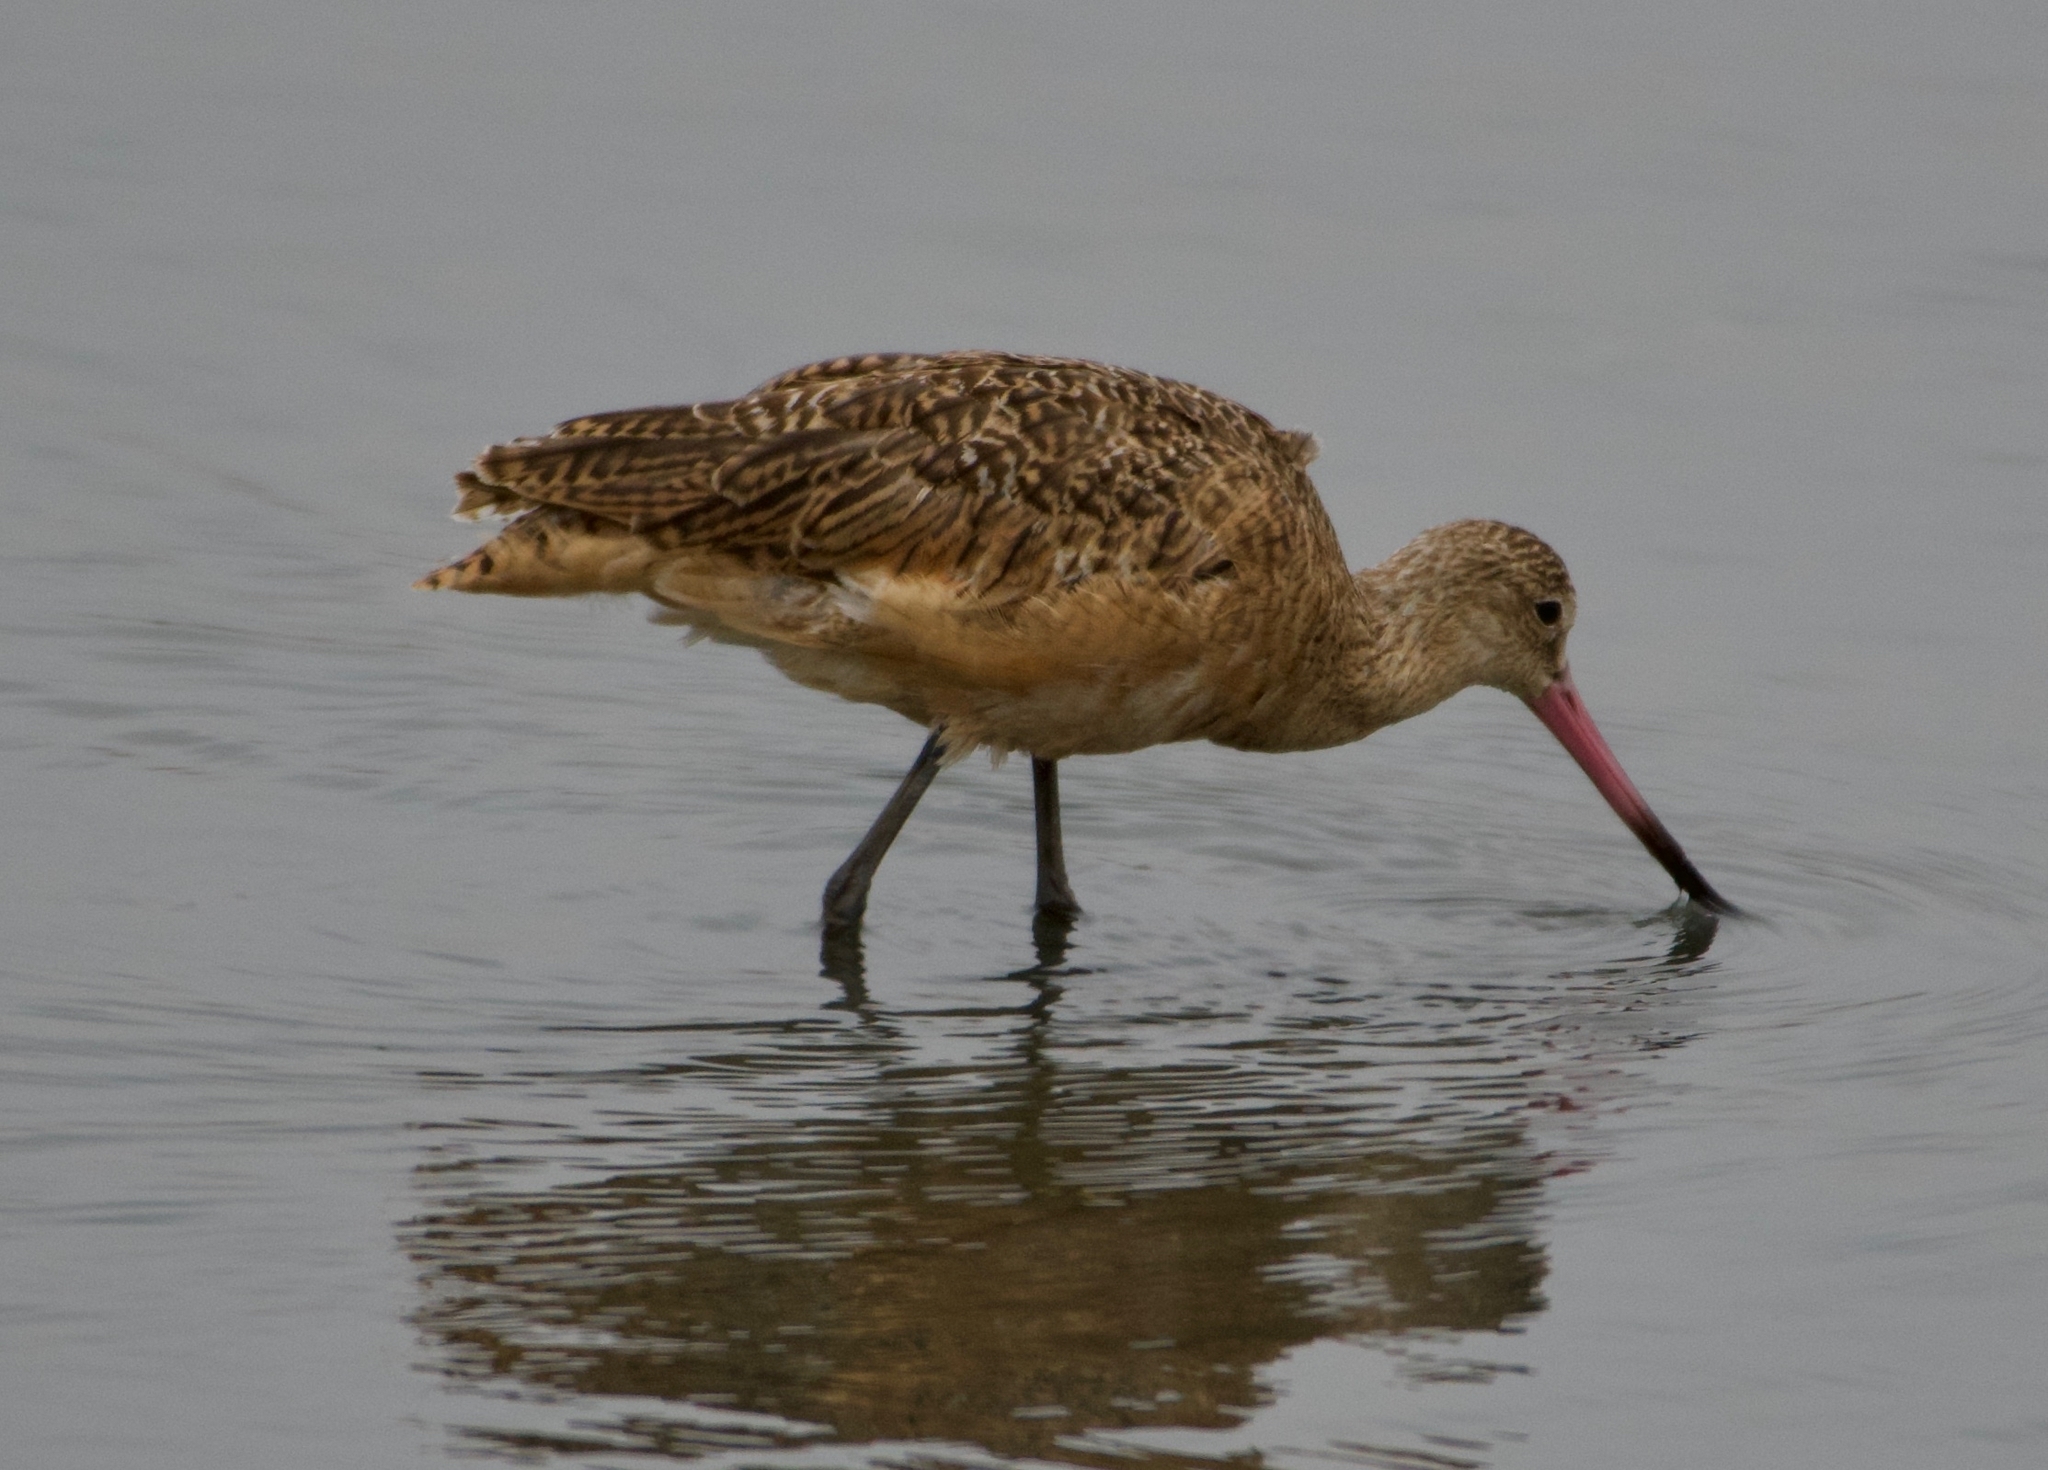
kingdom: Animalia
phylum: Chordata
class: Aves
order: Charadriiformes
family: Scolopacidae
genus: Limosa
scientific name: Limosa fedoa
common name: Marbled godwit
